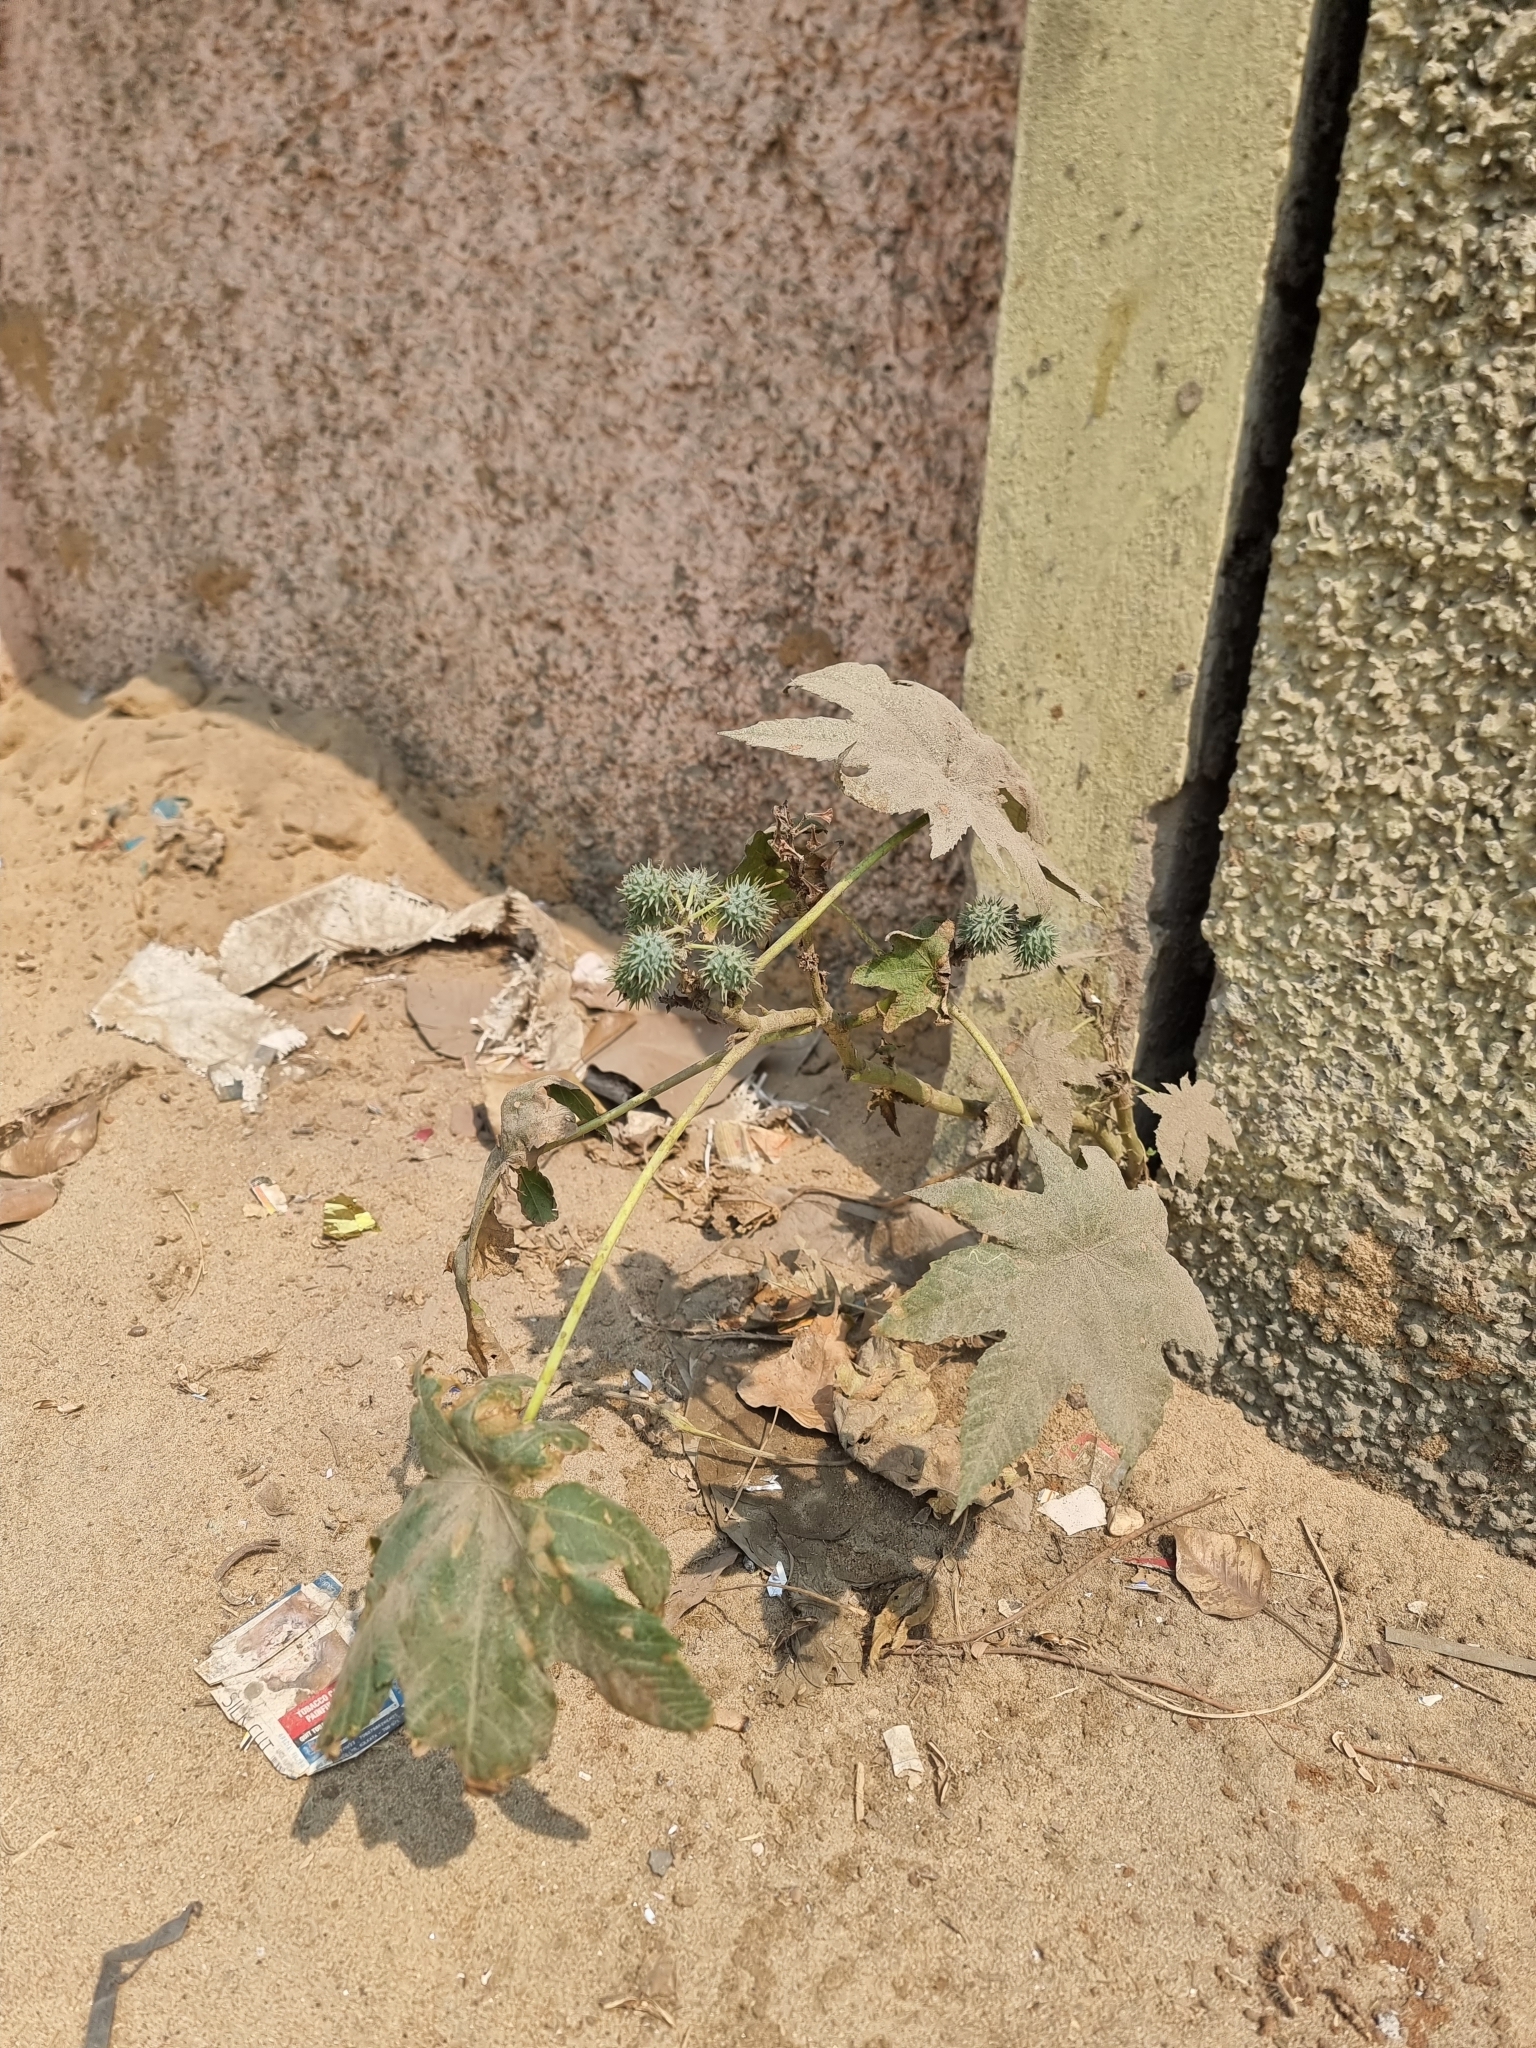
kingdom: Plantae
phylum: Tracheophyta
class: Magnoliopsida
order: Malpighiales
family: Euphorbiaceae
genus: Ricinus
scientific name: Ricinus communis
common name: Castor-oil-plant
